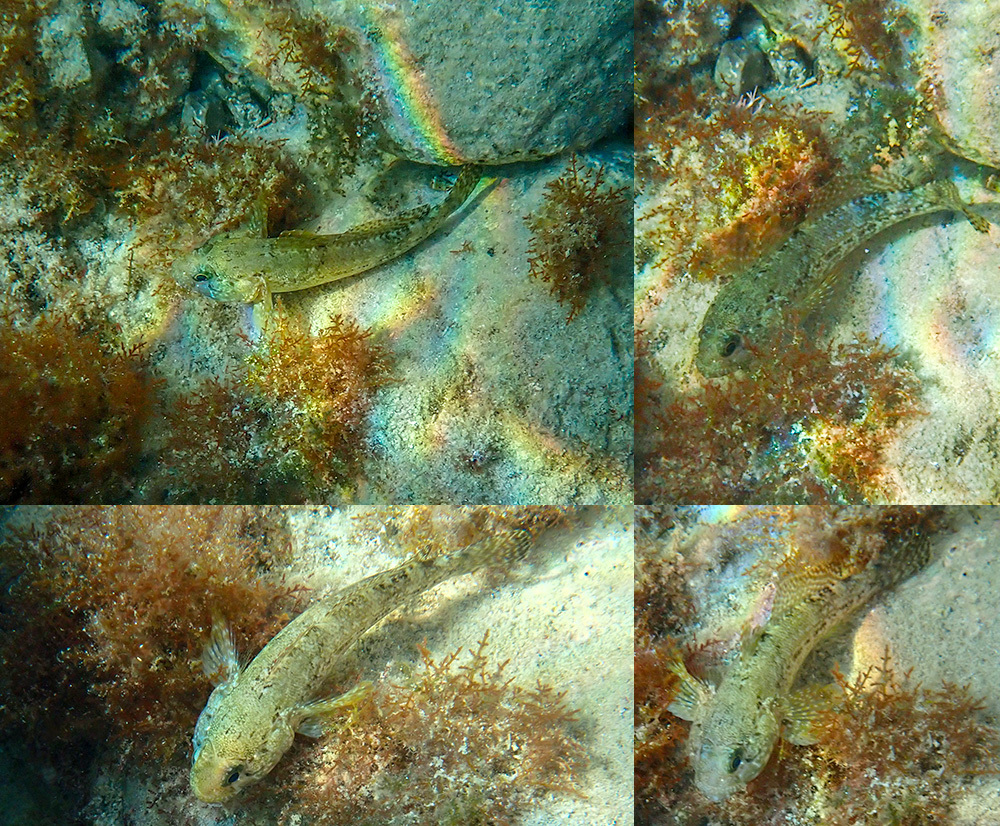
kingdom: Animalia
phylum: Chordata
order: Perciformes
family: Gobiidae
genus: Gobius
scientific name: Gobius paganellus
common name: Rock goby
